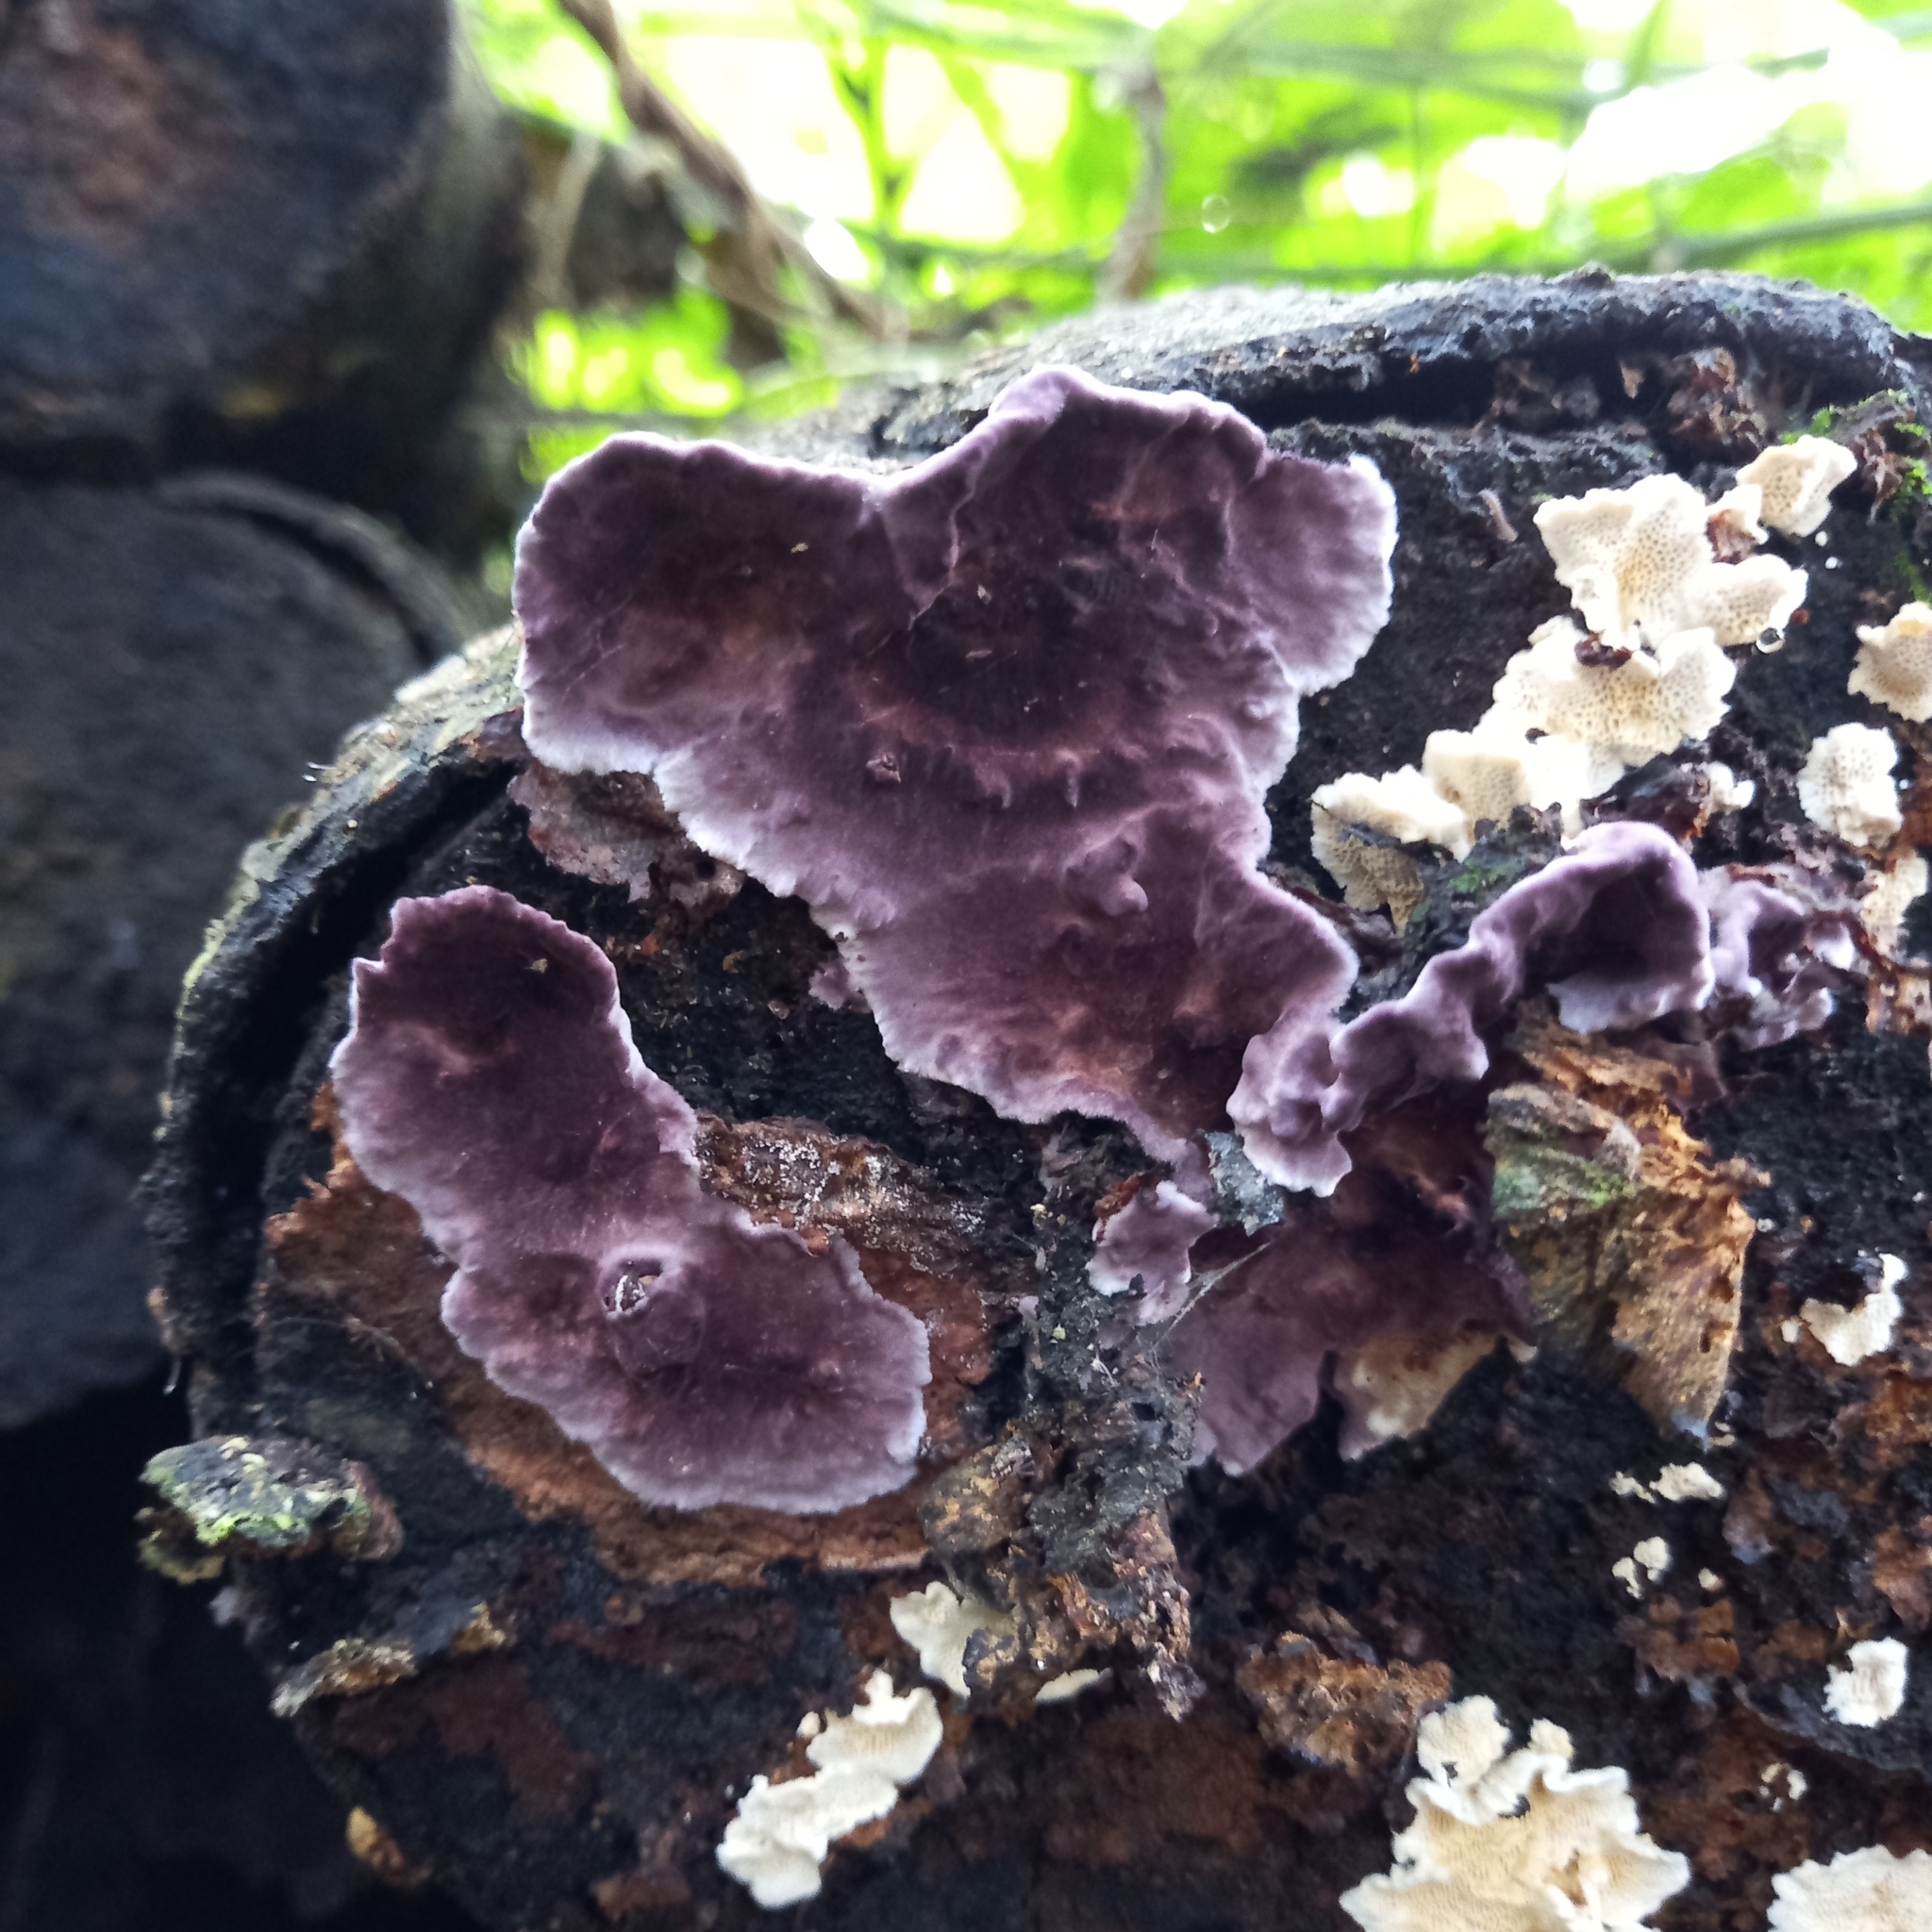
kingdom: Fungi
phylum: Basidiomycota
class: Agaricomycetes
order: Agaricales
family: Cyphellaceae
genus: Chondrostereum
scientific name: Chondrostereum purpureum
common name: Silver leaf disease
